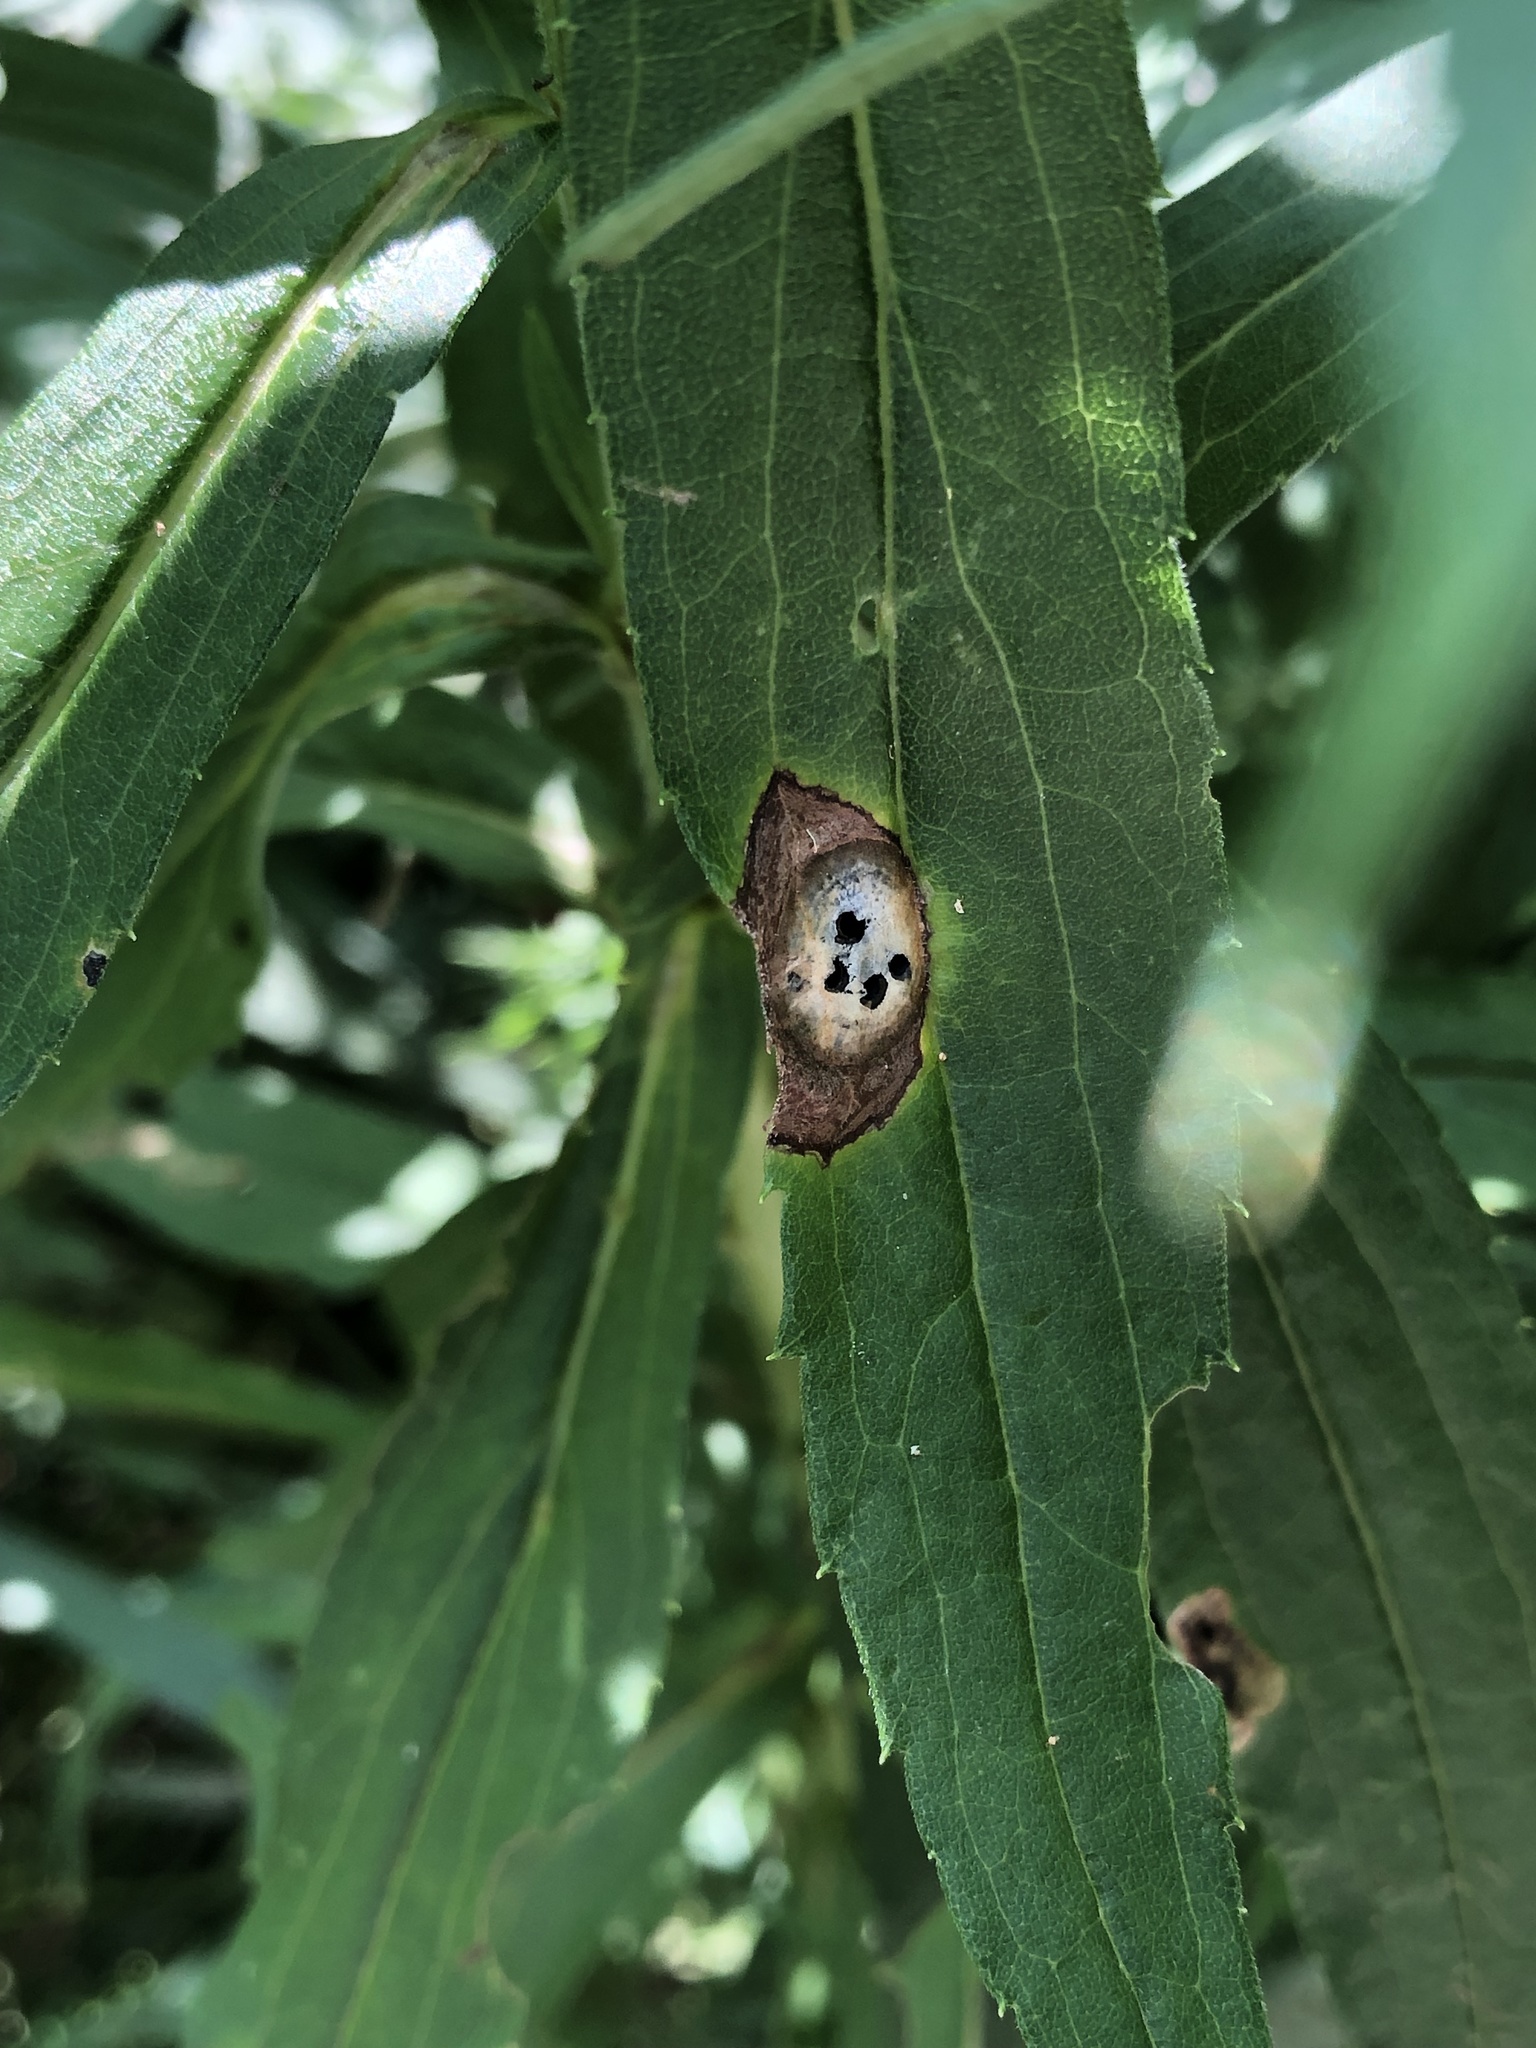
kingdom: Animalia
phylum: Arthropoda
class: Insecta
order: Diptera
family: Cecidomyiidae
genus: Asteromyia
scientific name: Asteromyia carbonifera
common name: Carbonifera goldenrod gall midge
